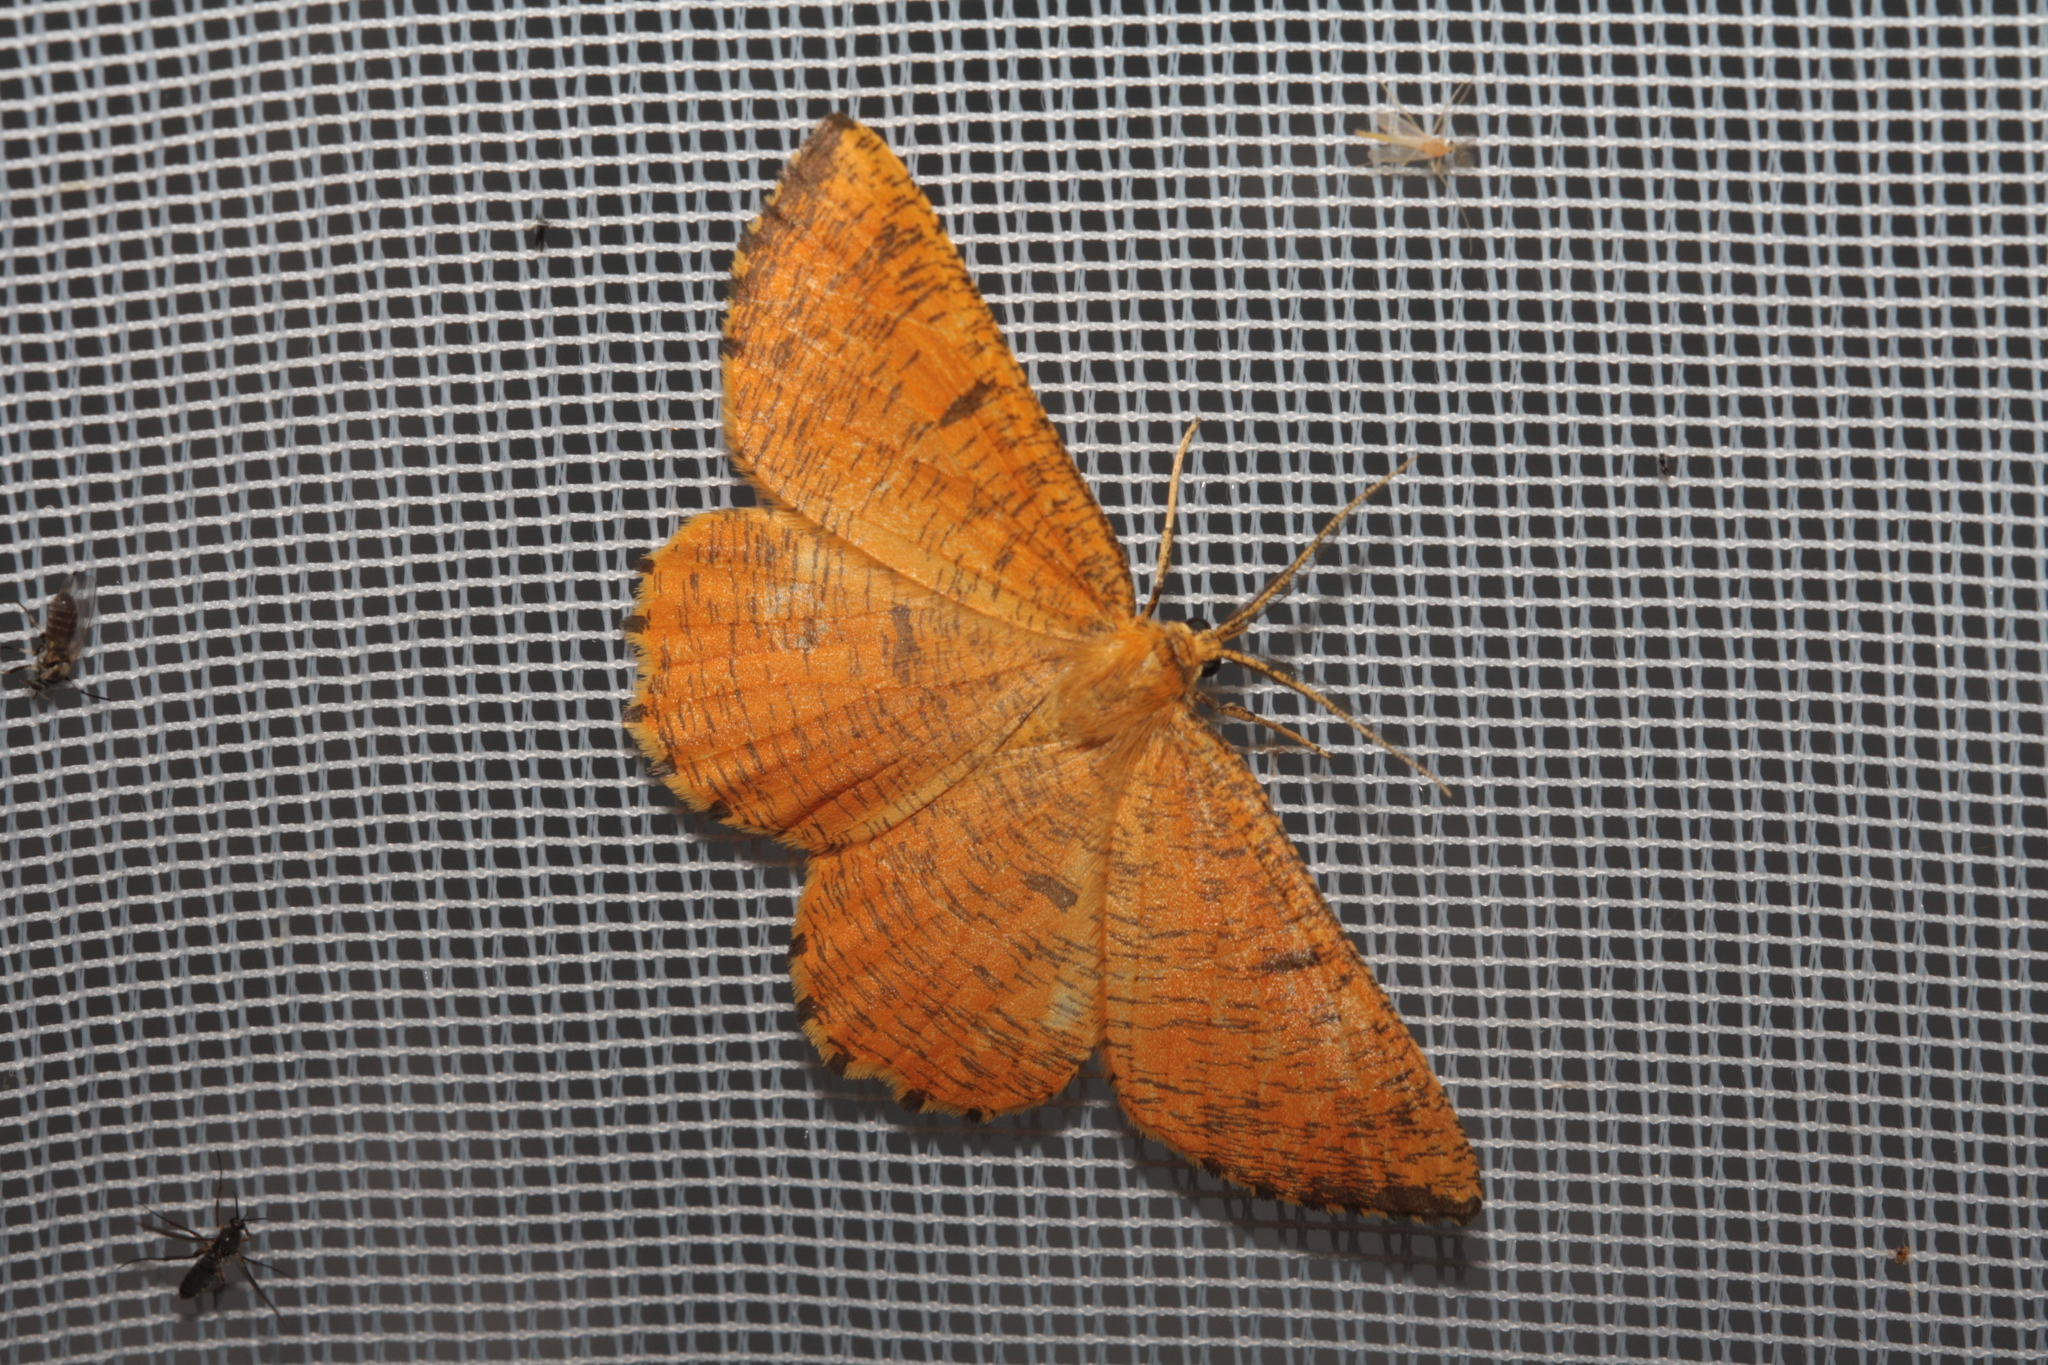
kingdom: Animalia
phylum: Arthropoda
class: Insecta
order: Lepidoptera
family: Geometridae
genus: Angerona
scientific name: Angerona prunaria
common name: Orange moth
